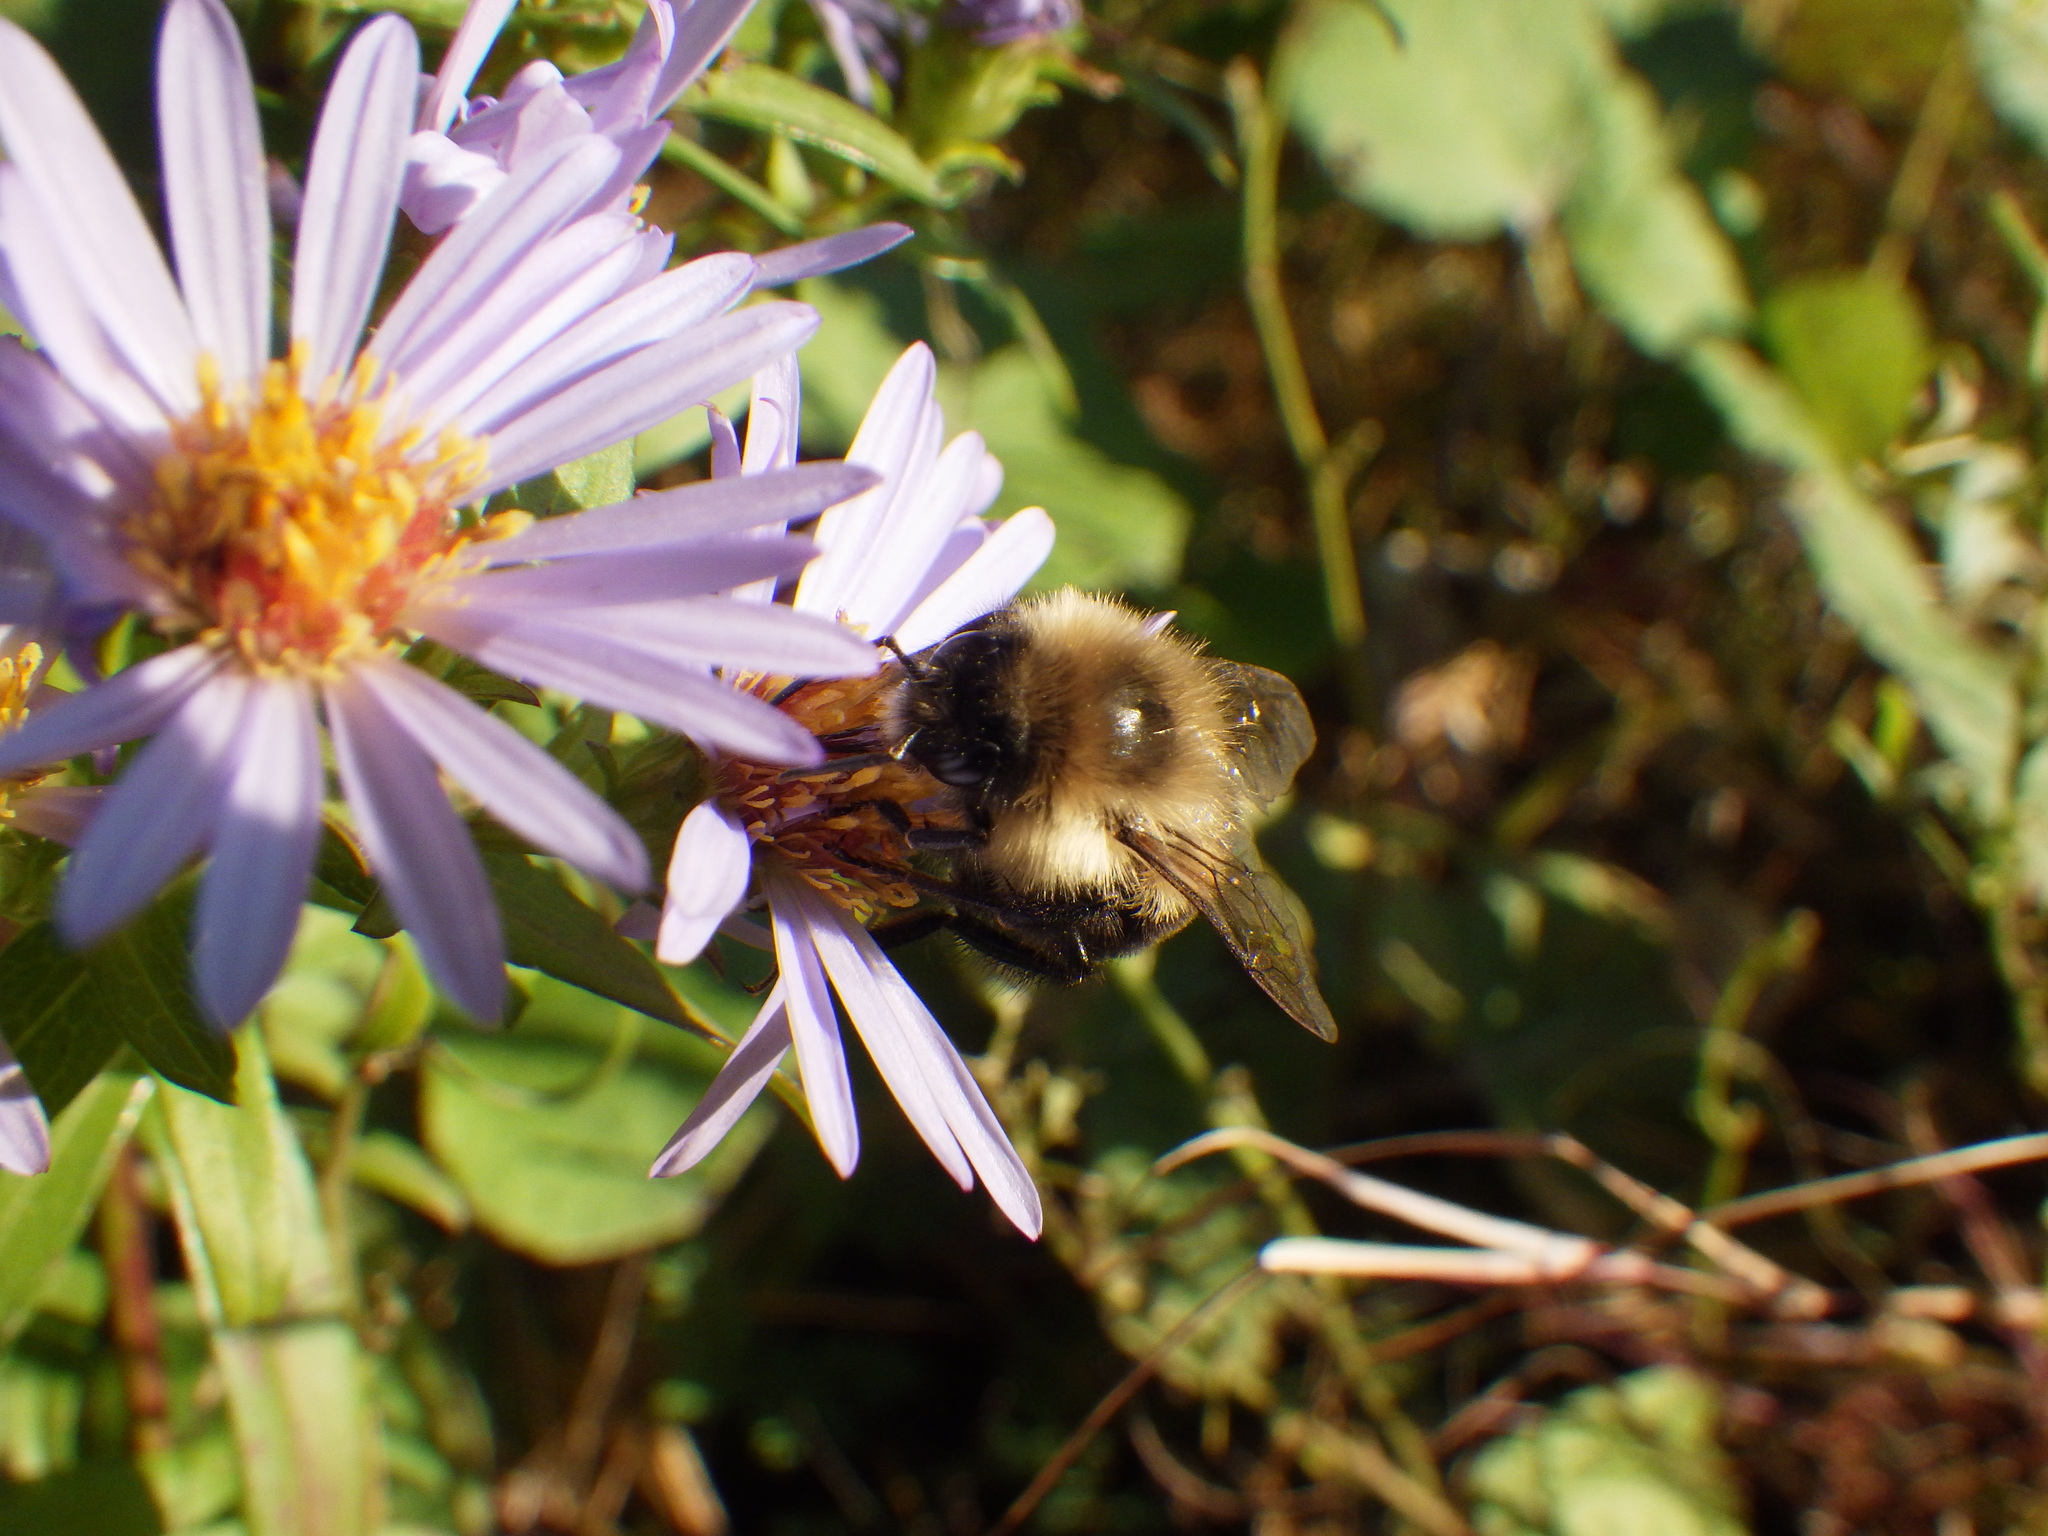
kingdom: Animalia
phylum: Arthropoda
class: Insecta
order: Hymenoptera
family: Apidae
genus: Bombus
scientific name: Bombus impatiens
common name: Common eastern bumble bee
